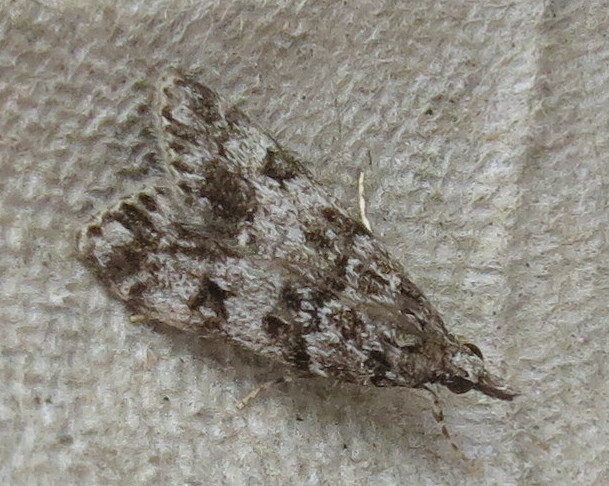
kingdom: Animalia
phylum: Arthropoda
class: Insecta
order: Lepidoptera
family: Crambidae
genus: Eudonia
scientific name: Eudonia lacustrata
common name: Little grey
